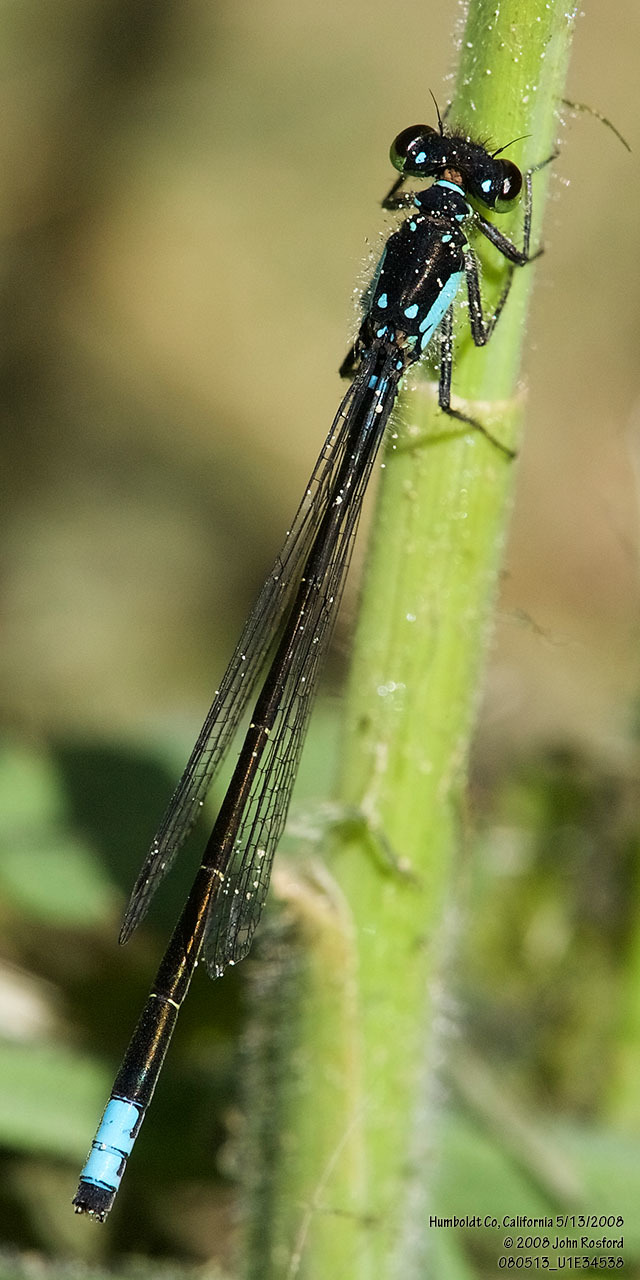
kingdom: Animalia
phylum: Arthropoda
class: Insecta
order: Odonata
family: Coenagrionidae
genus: Ischnura
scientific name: Ischnura cervula
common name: Pacific forktail
